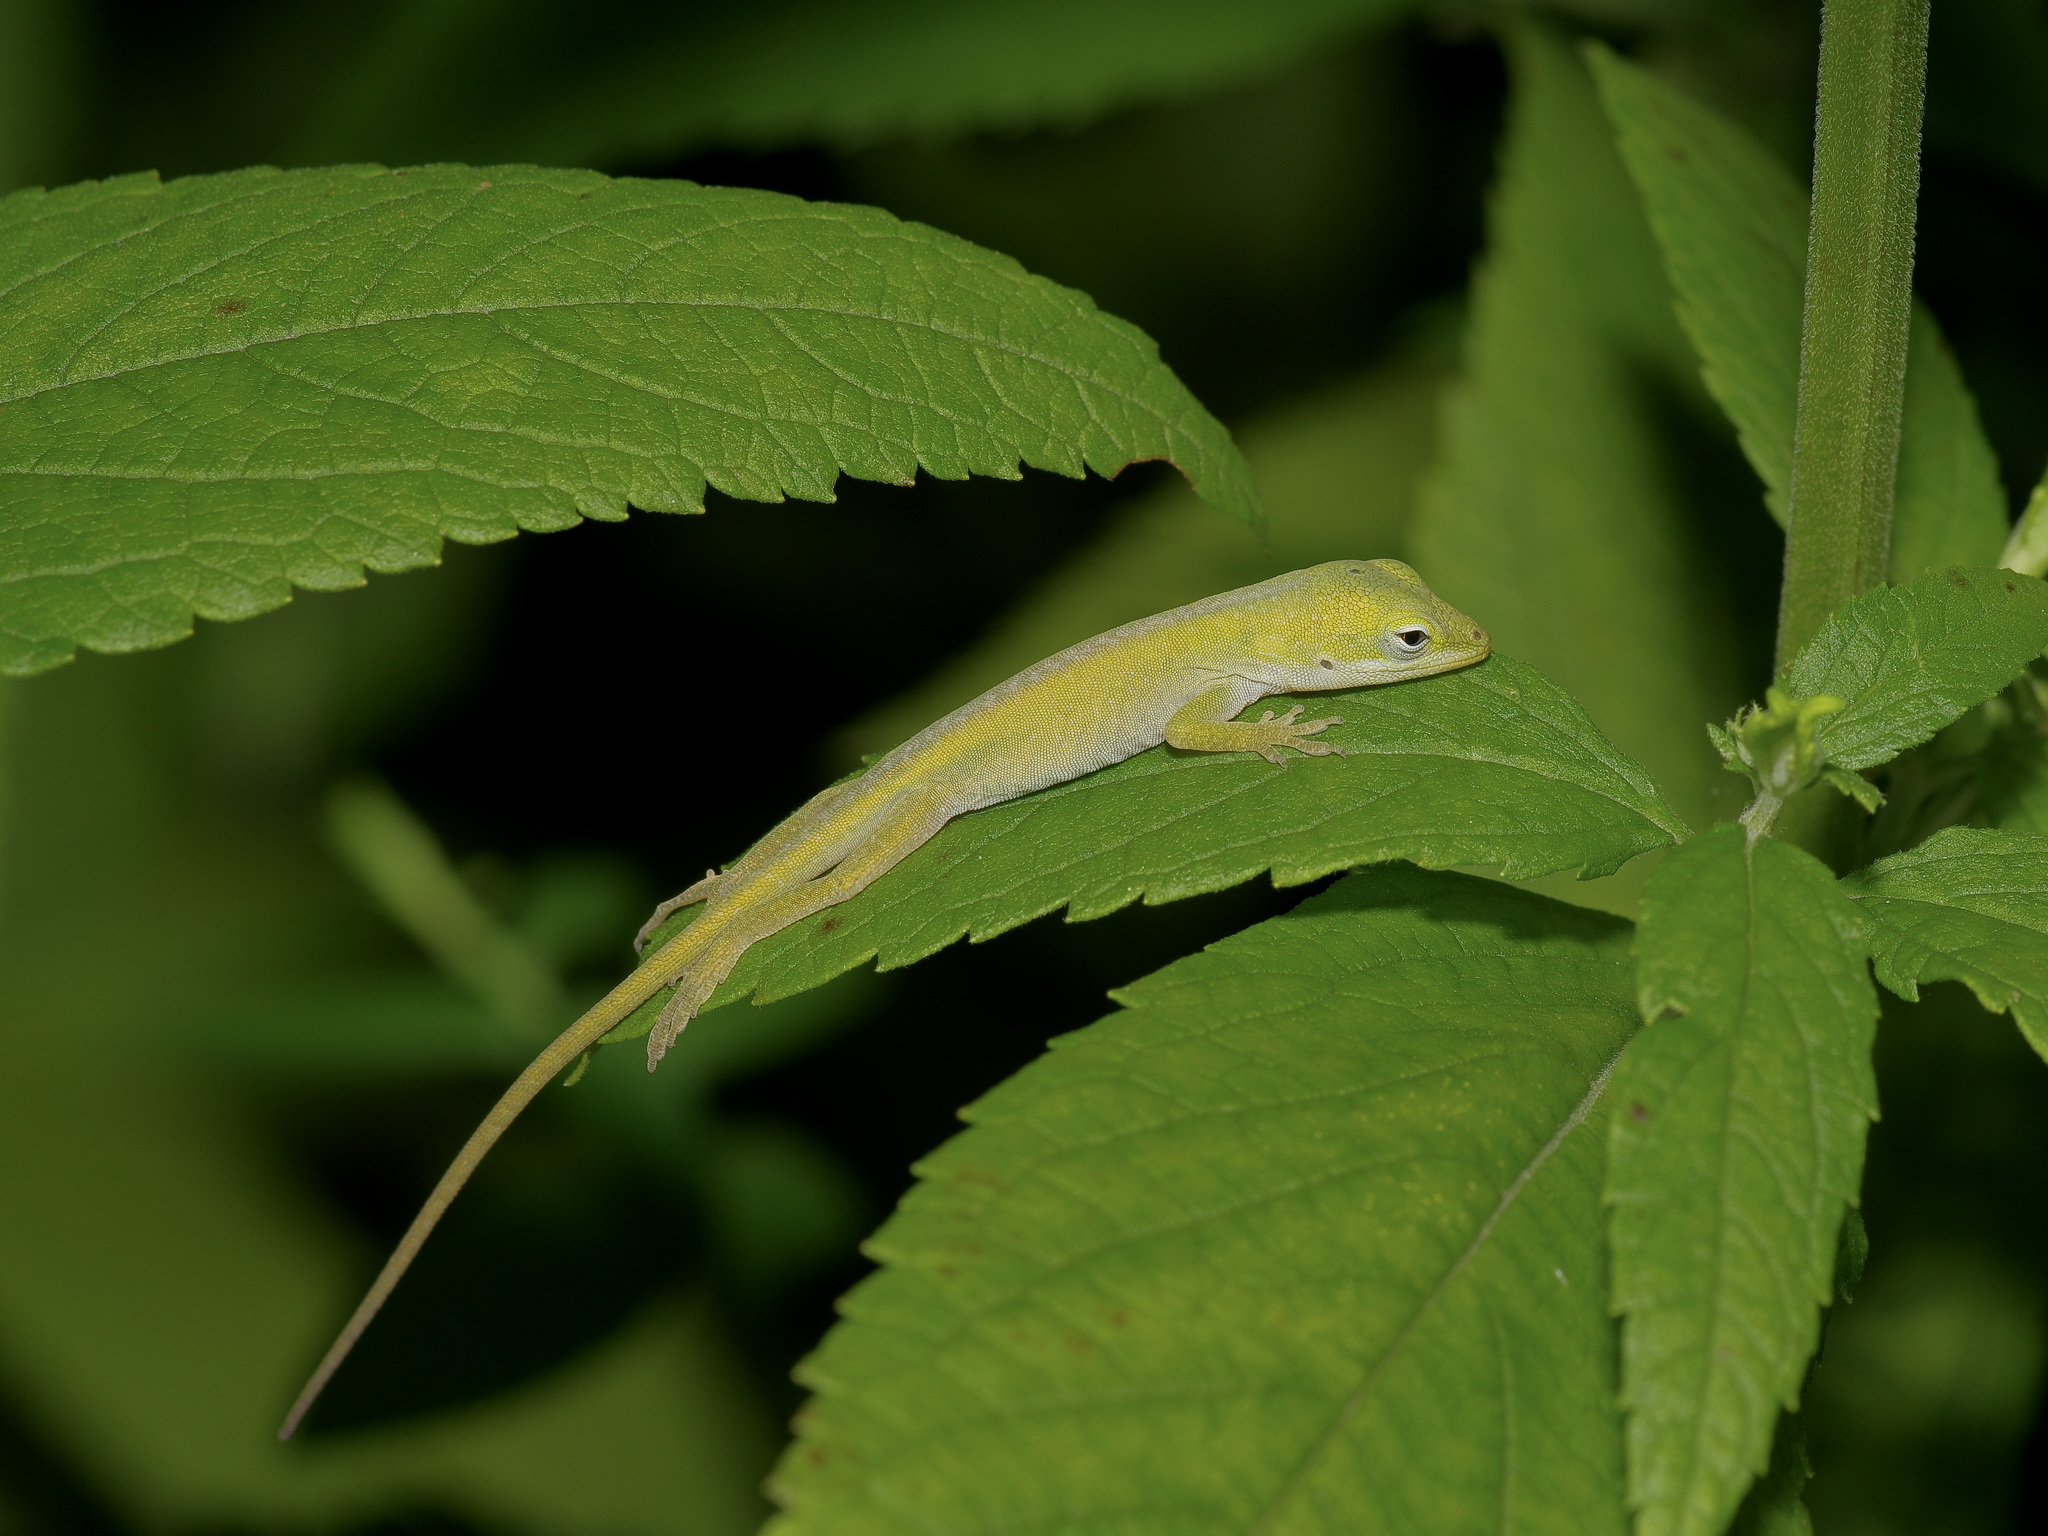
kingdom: Animalia
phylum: Chordata
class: Squamata
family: Dactyloidae
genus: Anolis
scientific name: Anolis carolinensis
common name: Green anole
